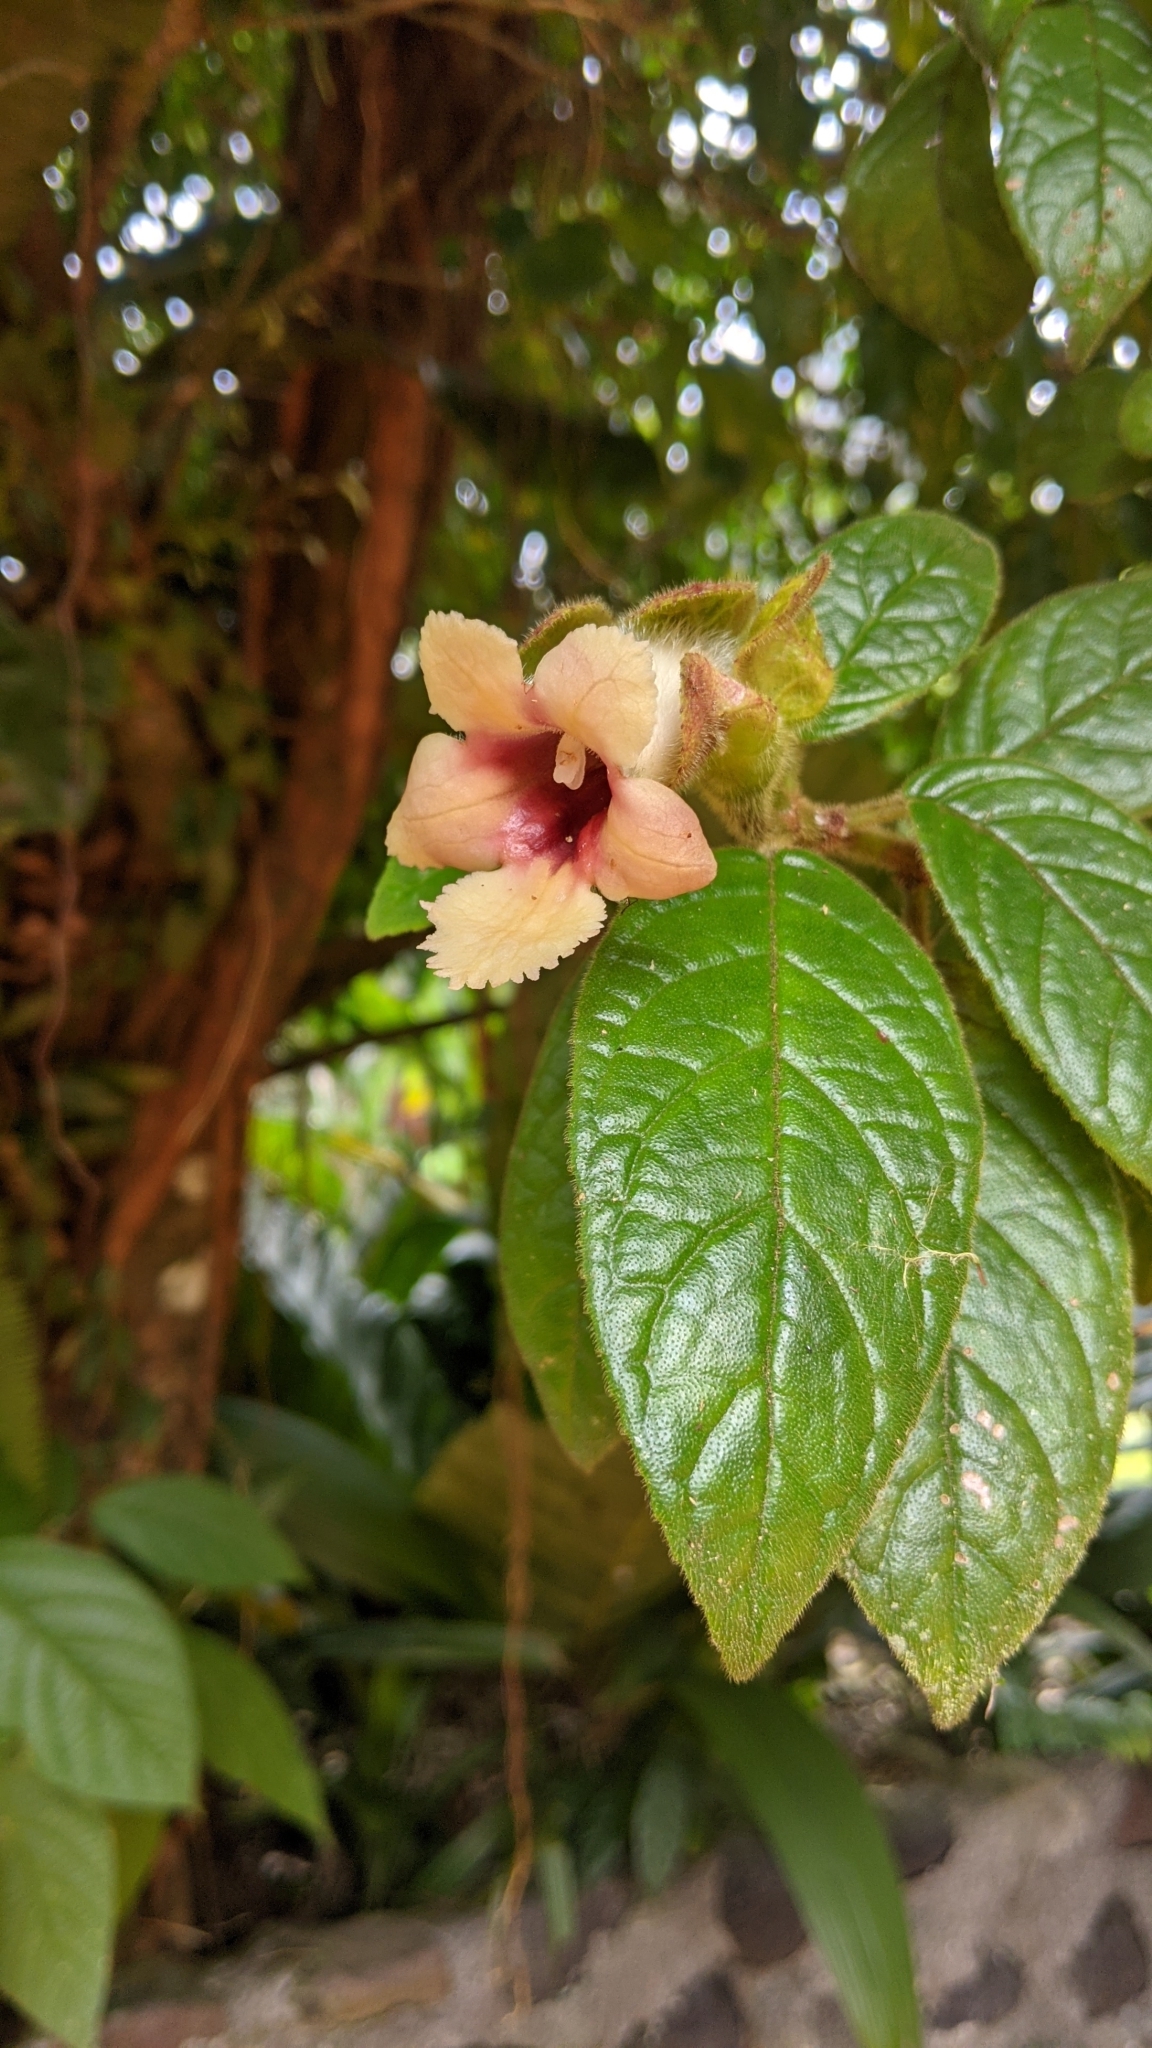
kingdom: Plantae
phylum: Tracheophyta
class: Magnoliopsida
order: Lamiales
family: Gesneriaceae
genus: Drymonia
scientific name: Drymonia alloplectoides
